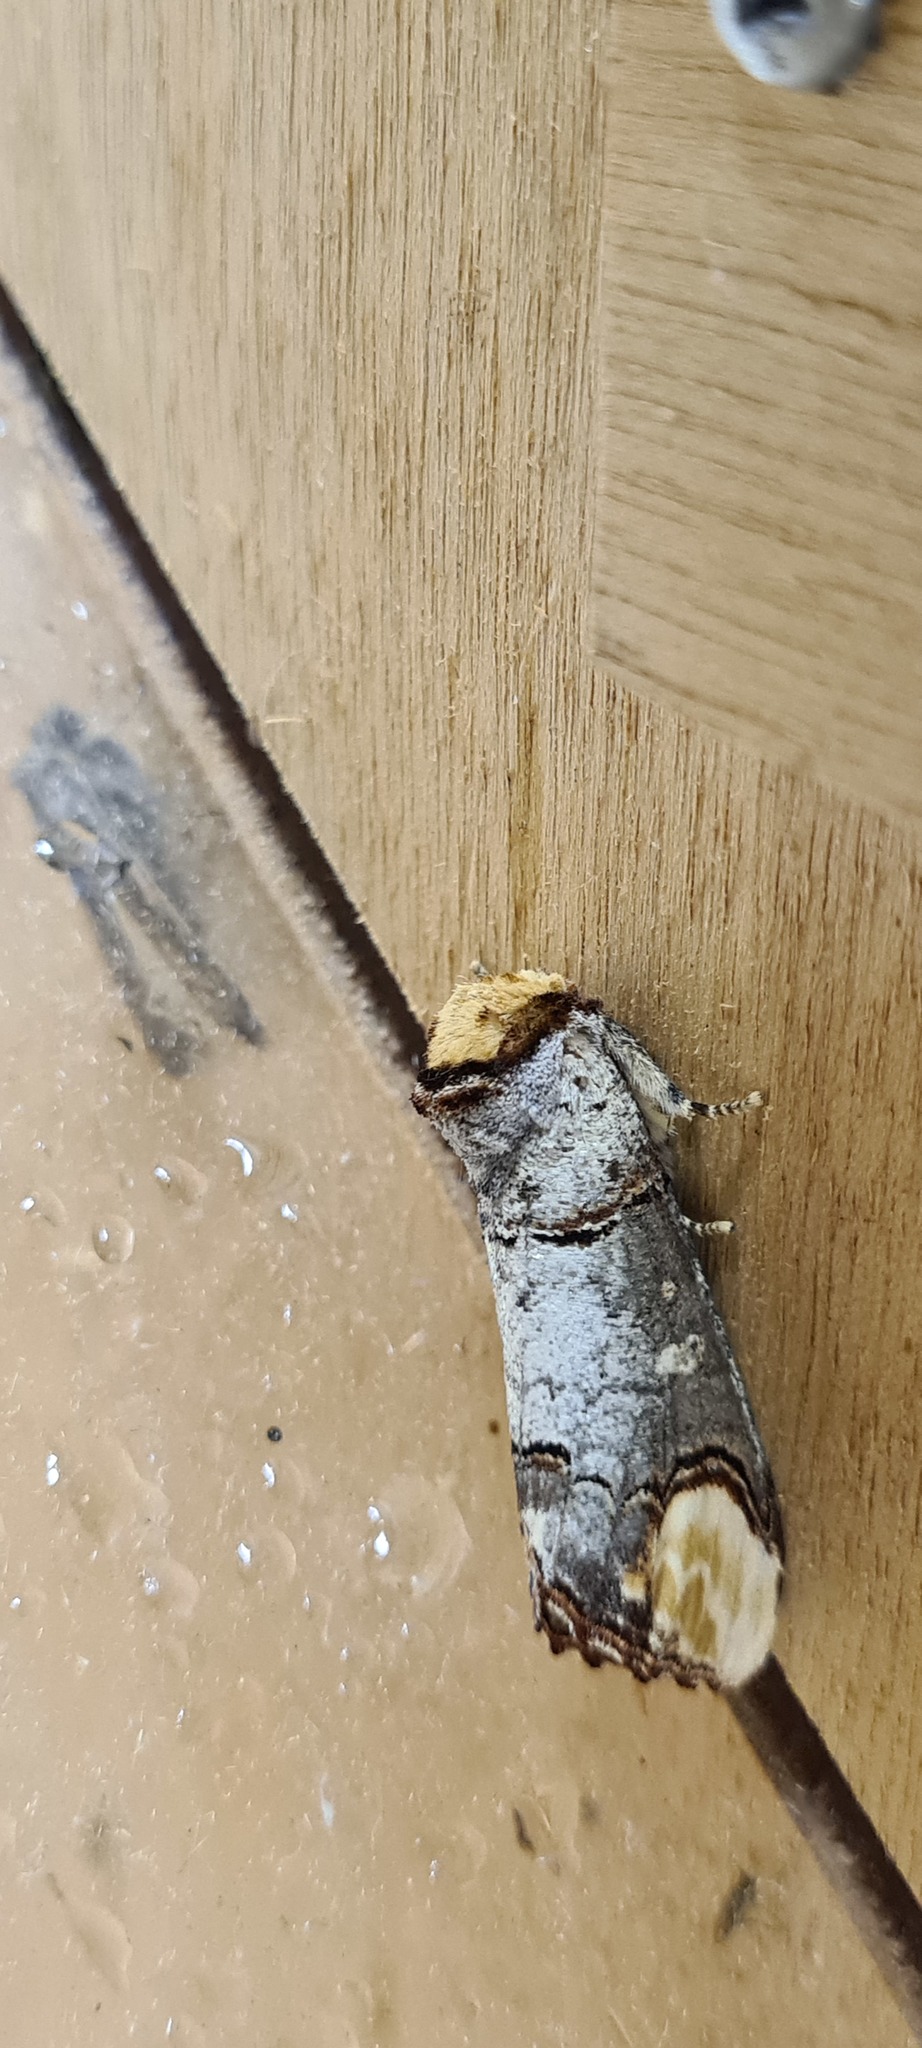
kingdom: Animalia
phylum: Arthropoda
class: Insecta
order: Lepidoptera
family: Notodontidae
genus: Phalera
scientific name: Phalera bucephala
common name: Buff-tip
